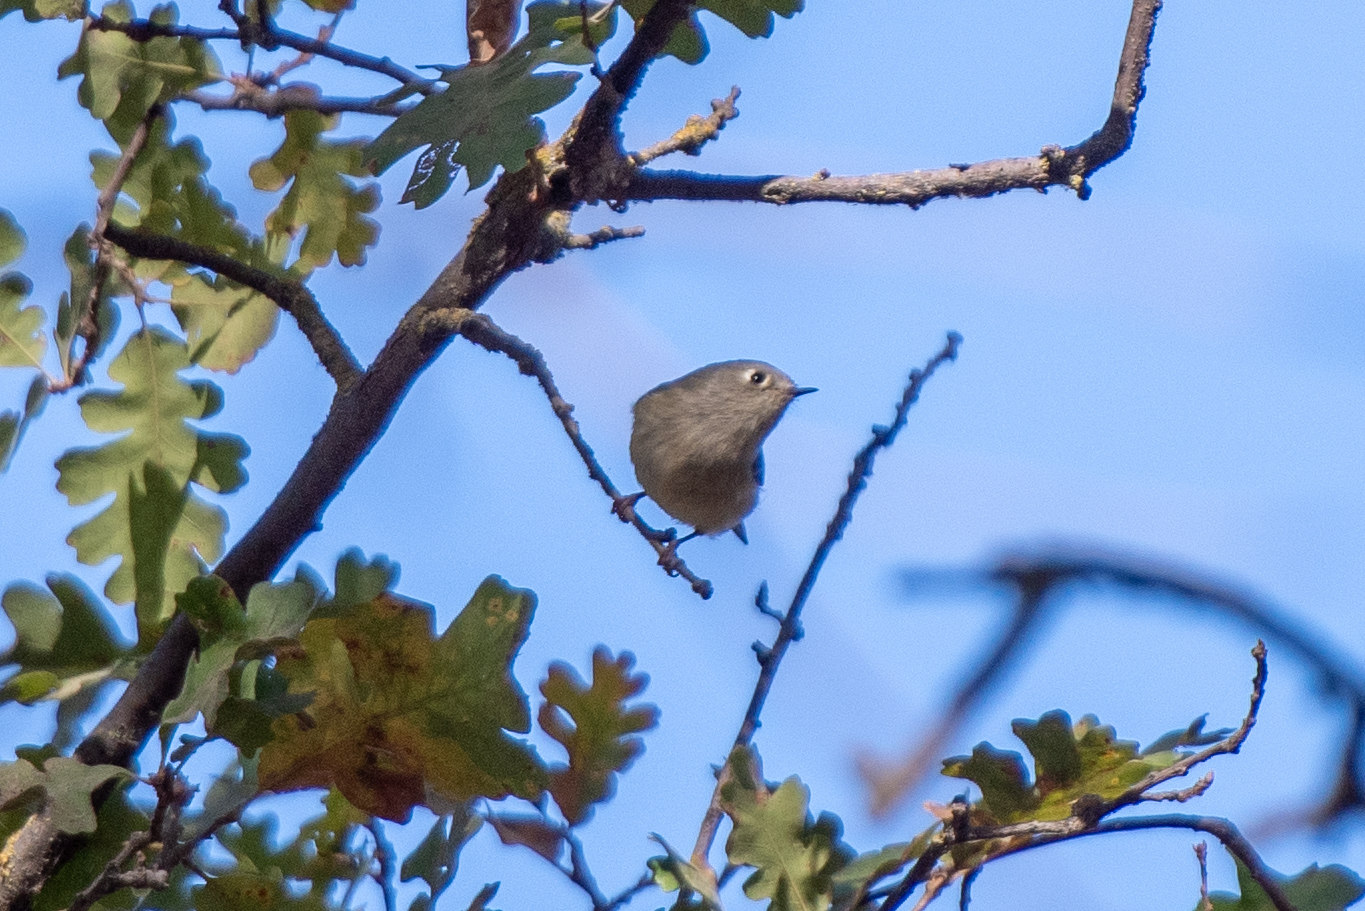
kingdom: Animalia
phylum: Chordata
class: Aves
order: Passeriformes
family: Regulidae
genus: Regulus
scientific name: Regulus calendula
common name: Ruby-crowned kinglet
